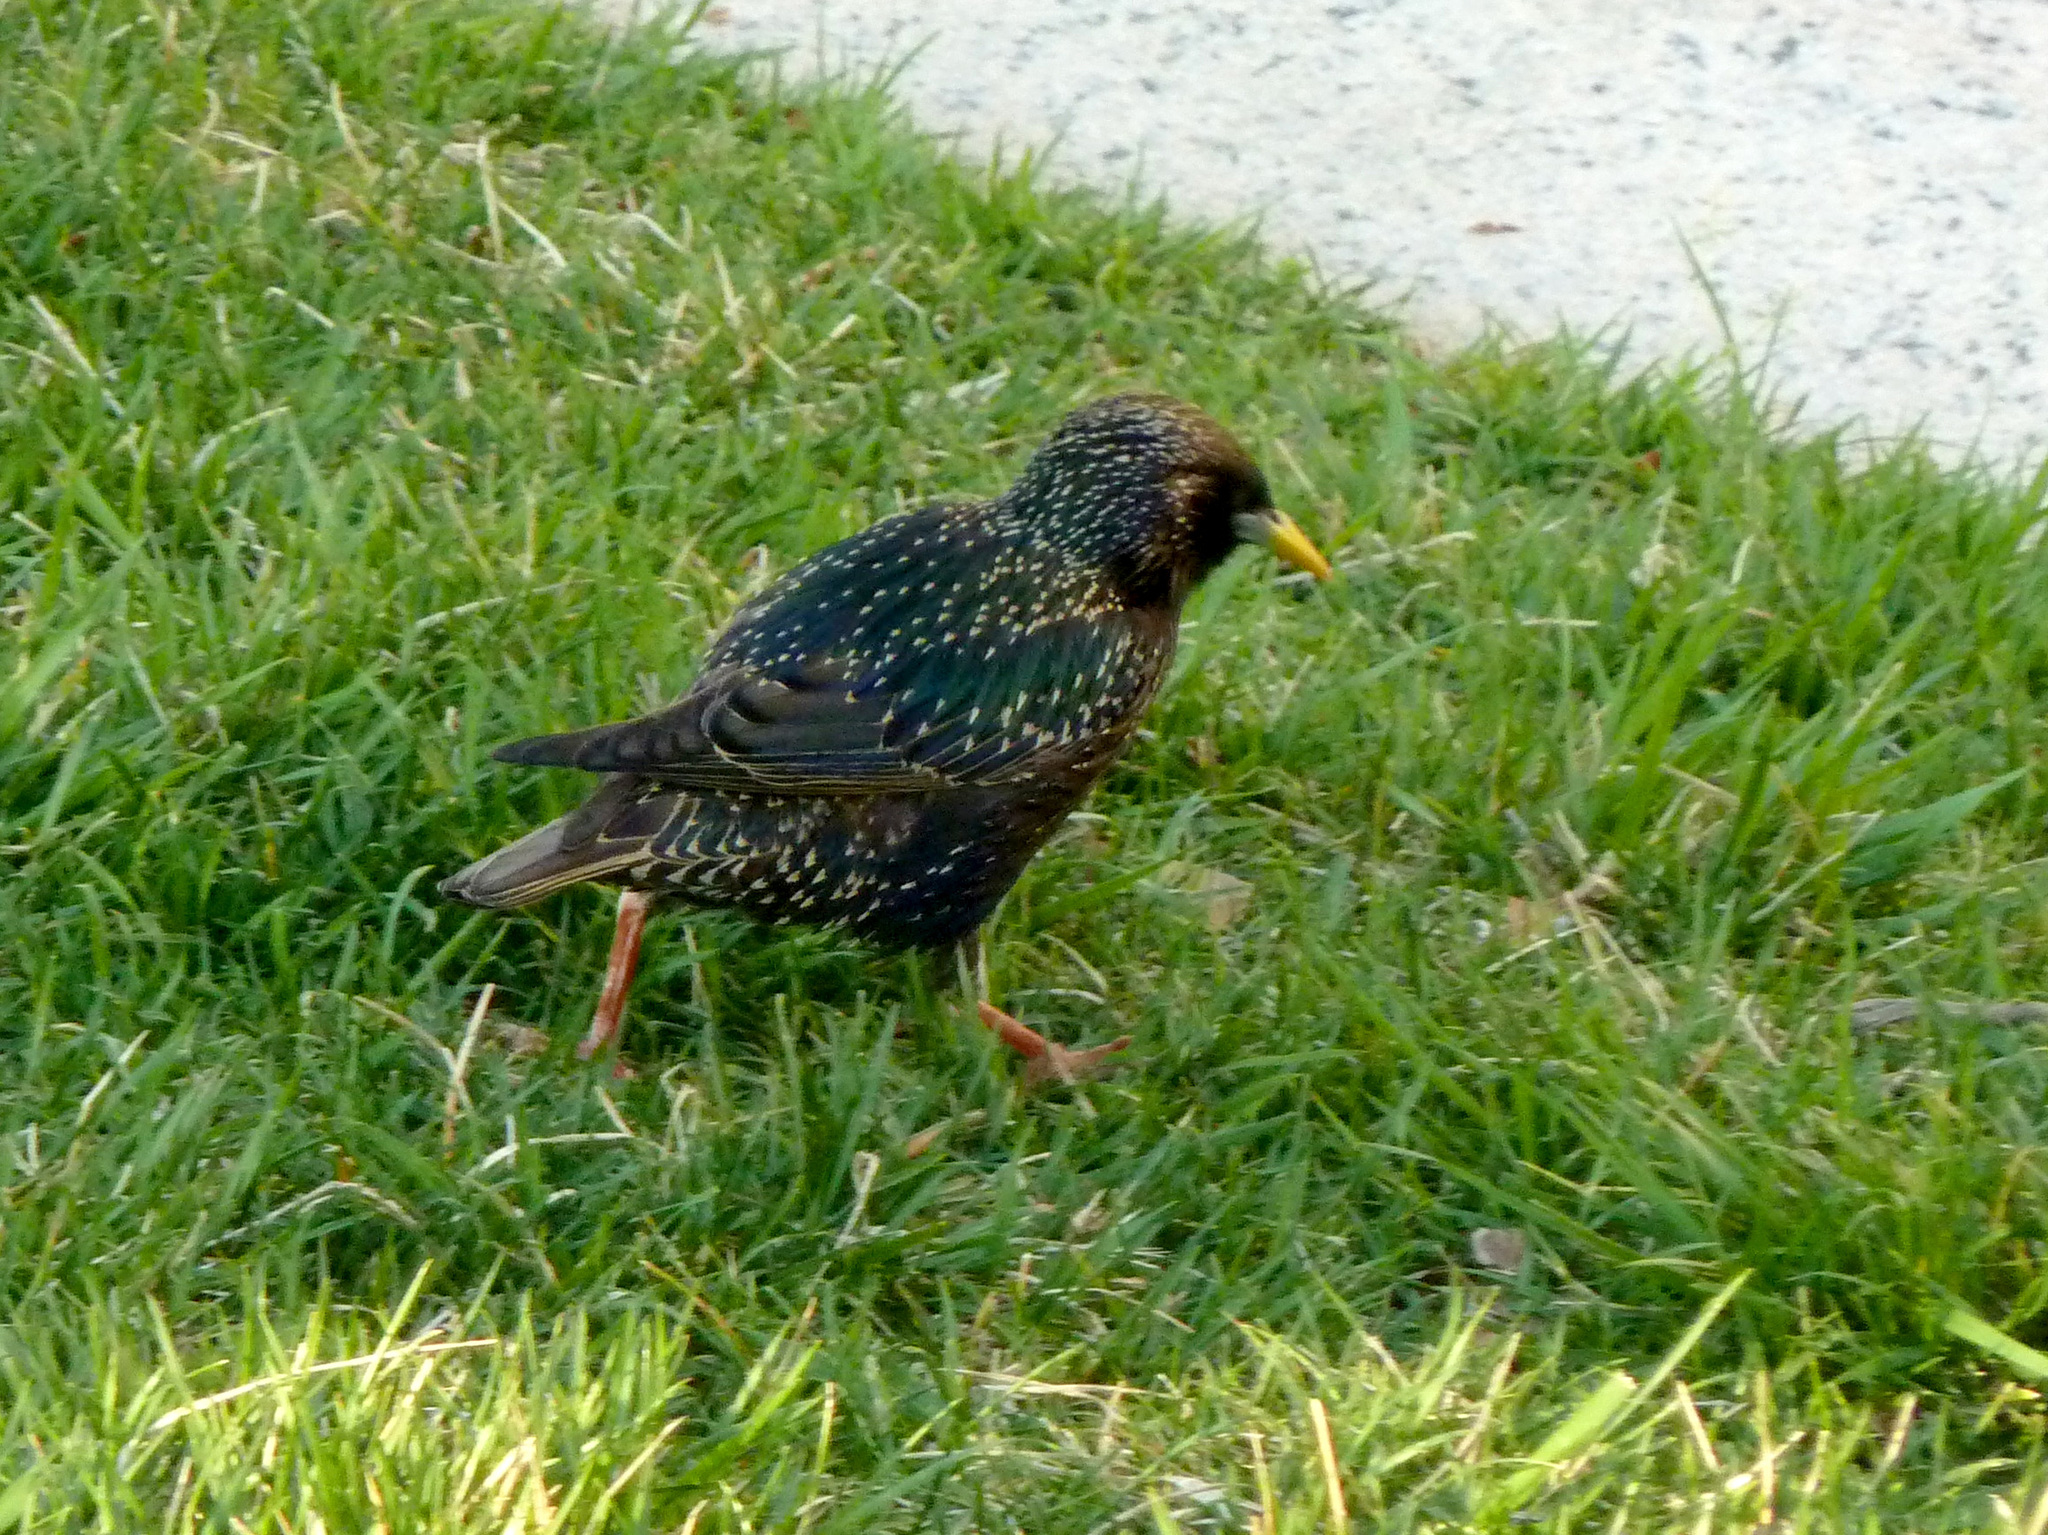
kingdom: Animalia
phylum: Chordata
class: Aves
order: Passeriformes
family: Sturnidae
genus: Sturnus
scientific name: Sturnus vulgaris
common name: Common starling
